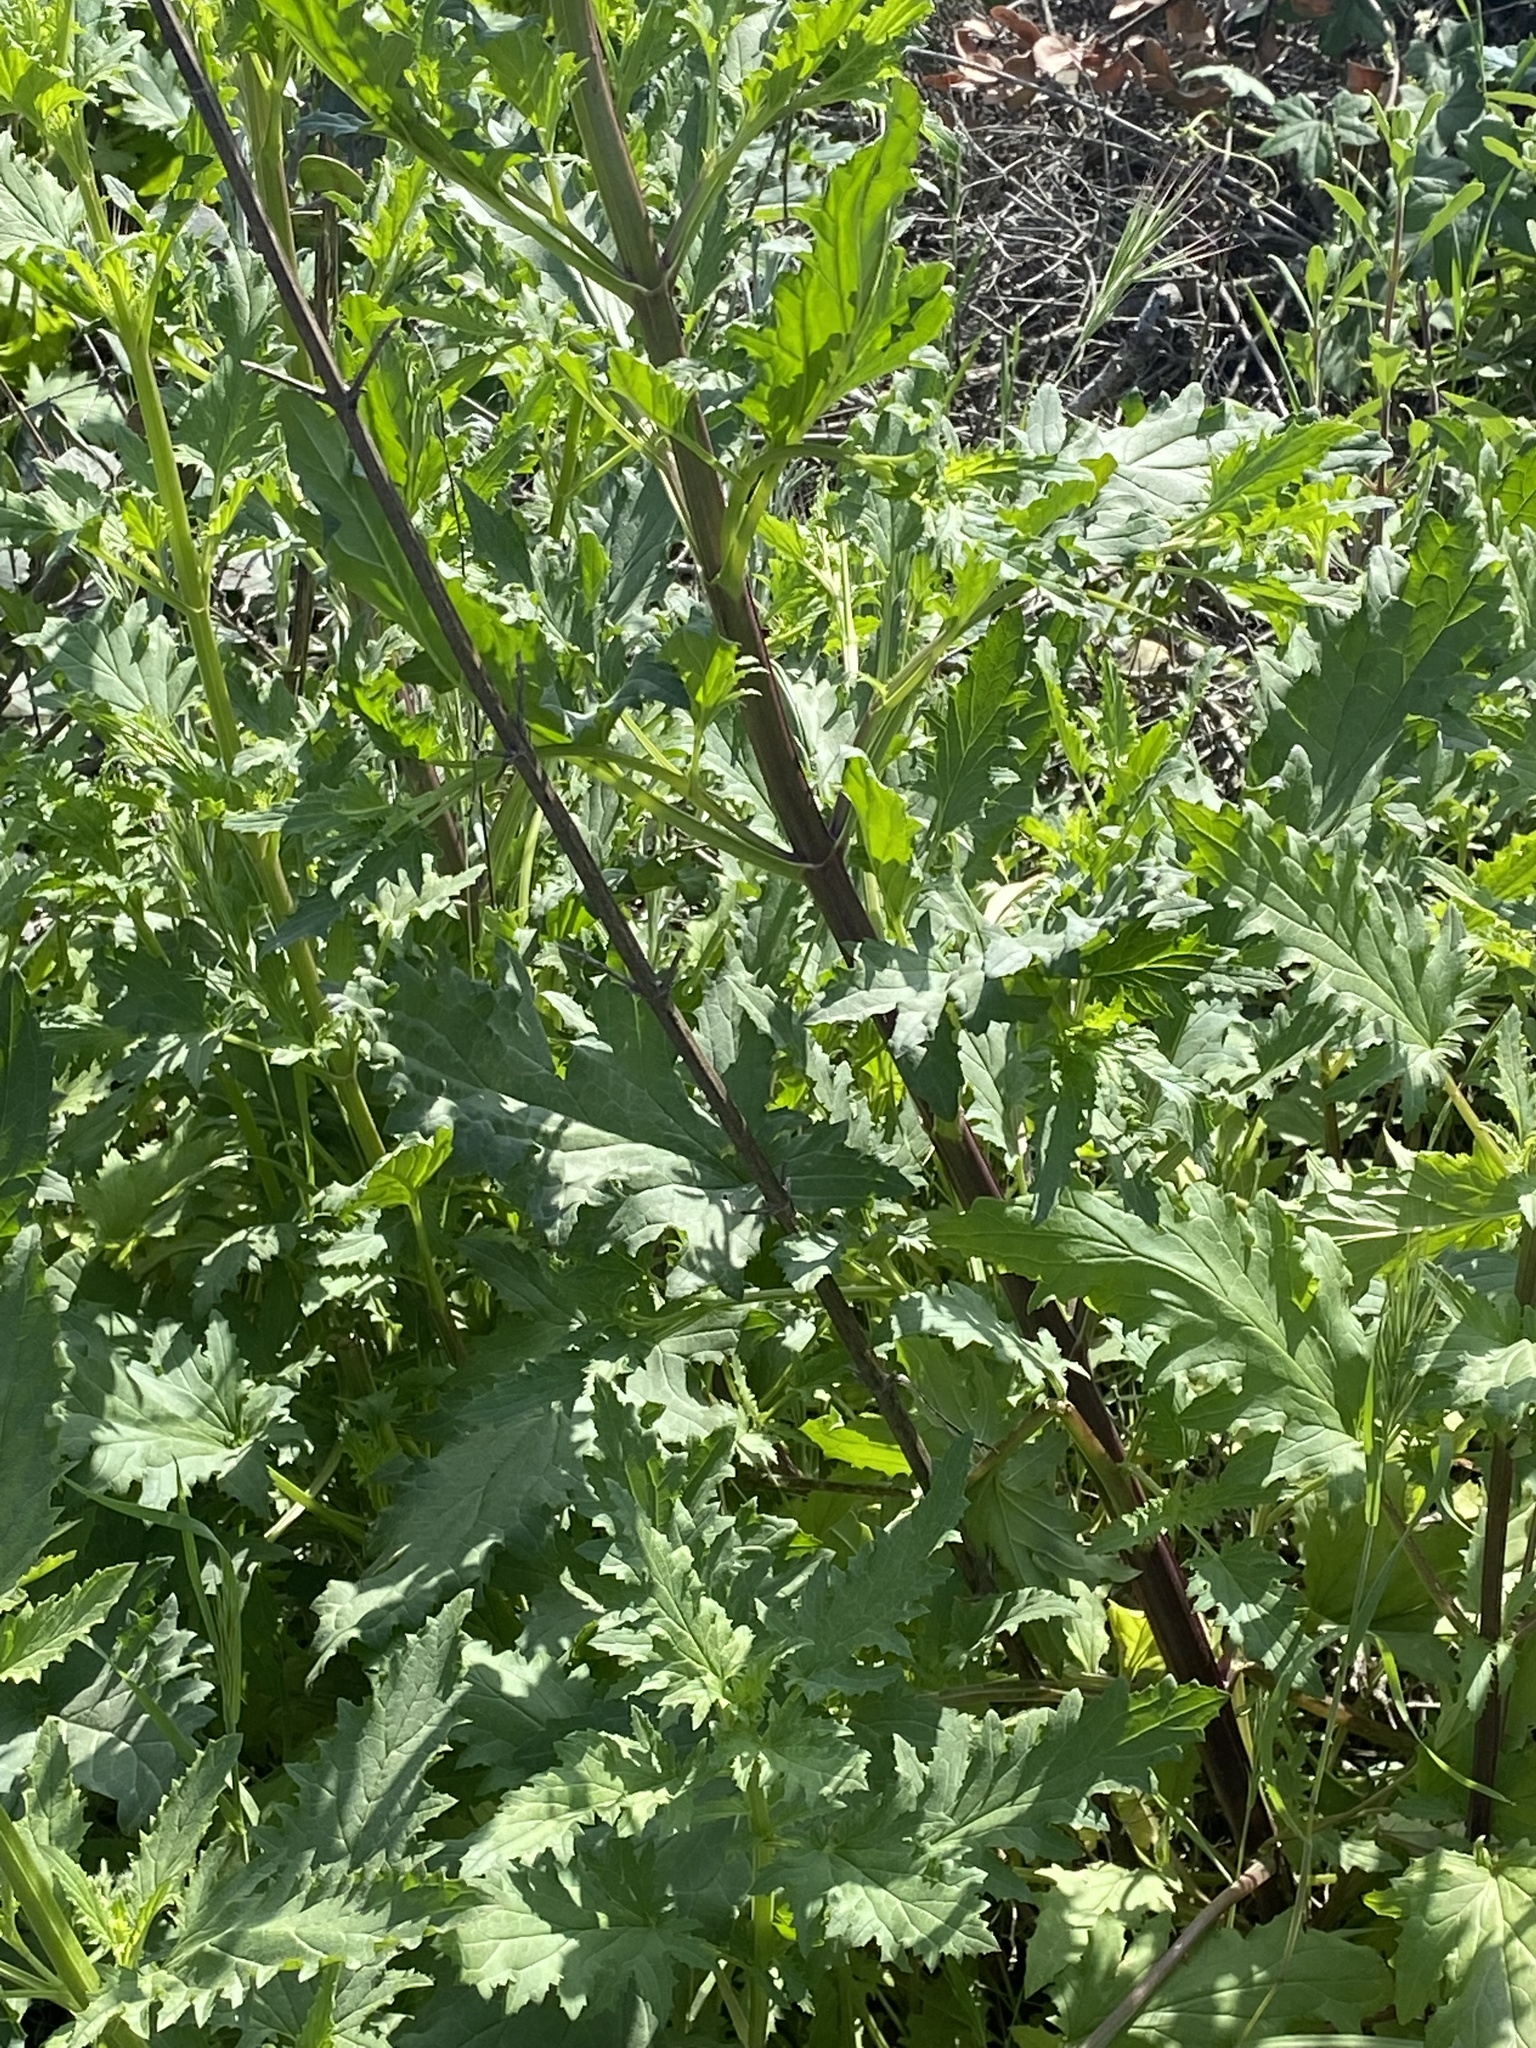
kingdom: Plantae
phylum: Tracheophyta
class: Magnoliopsida
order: Lamiales
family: Scrophulariaceae
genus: Scrophularia
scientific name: Scrophularia californica
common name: California figwort
